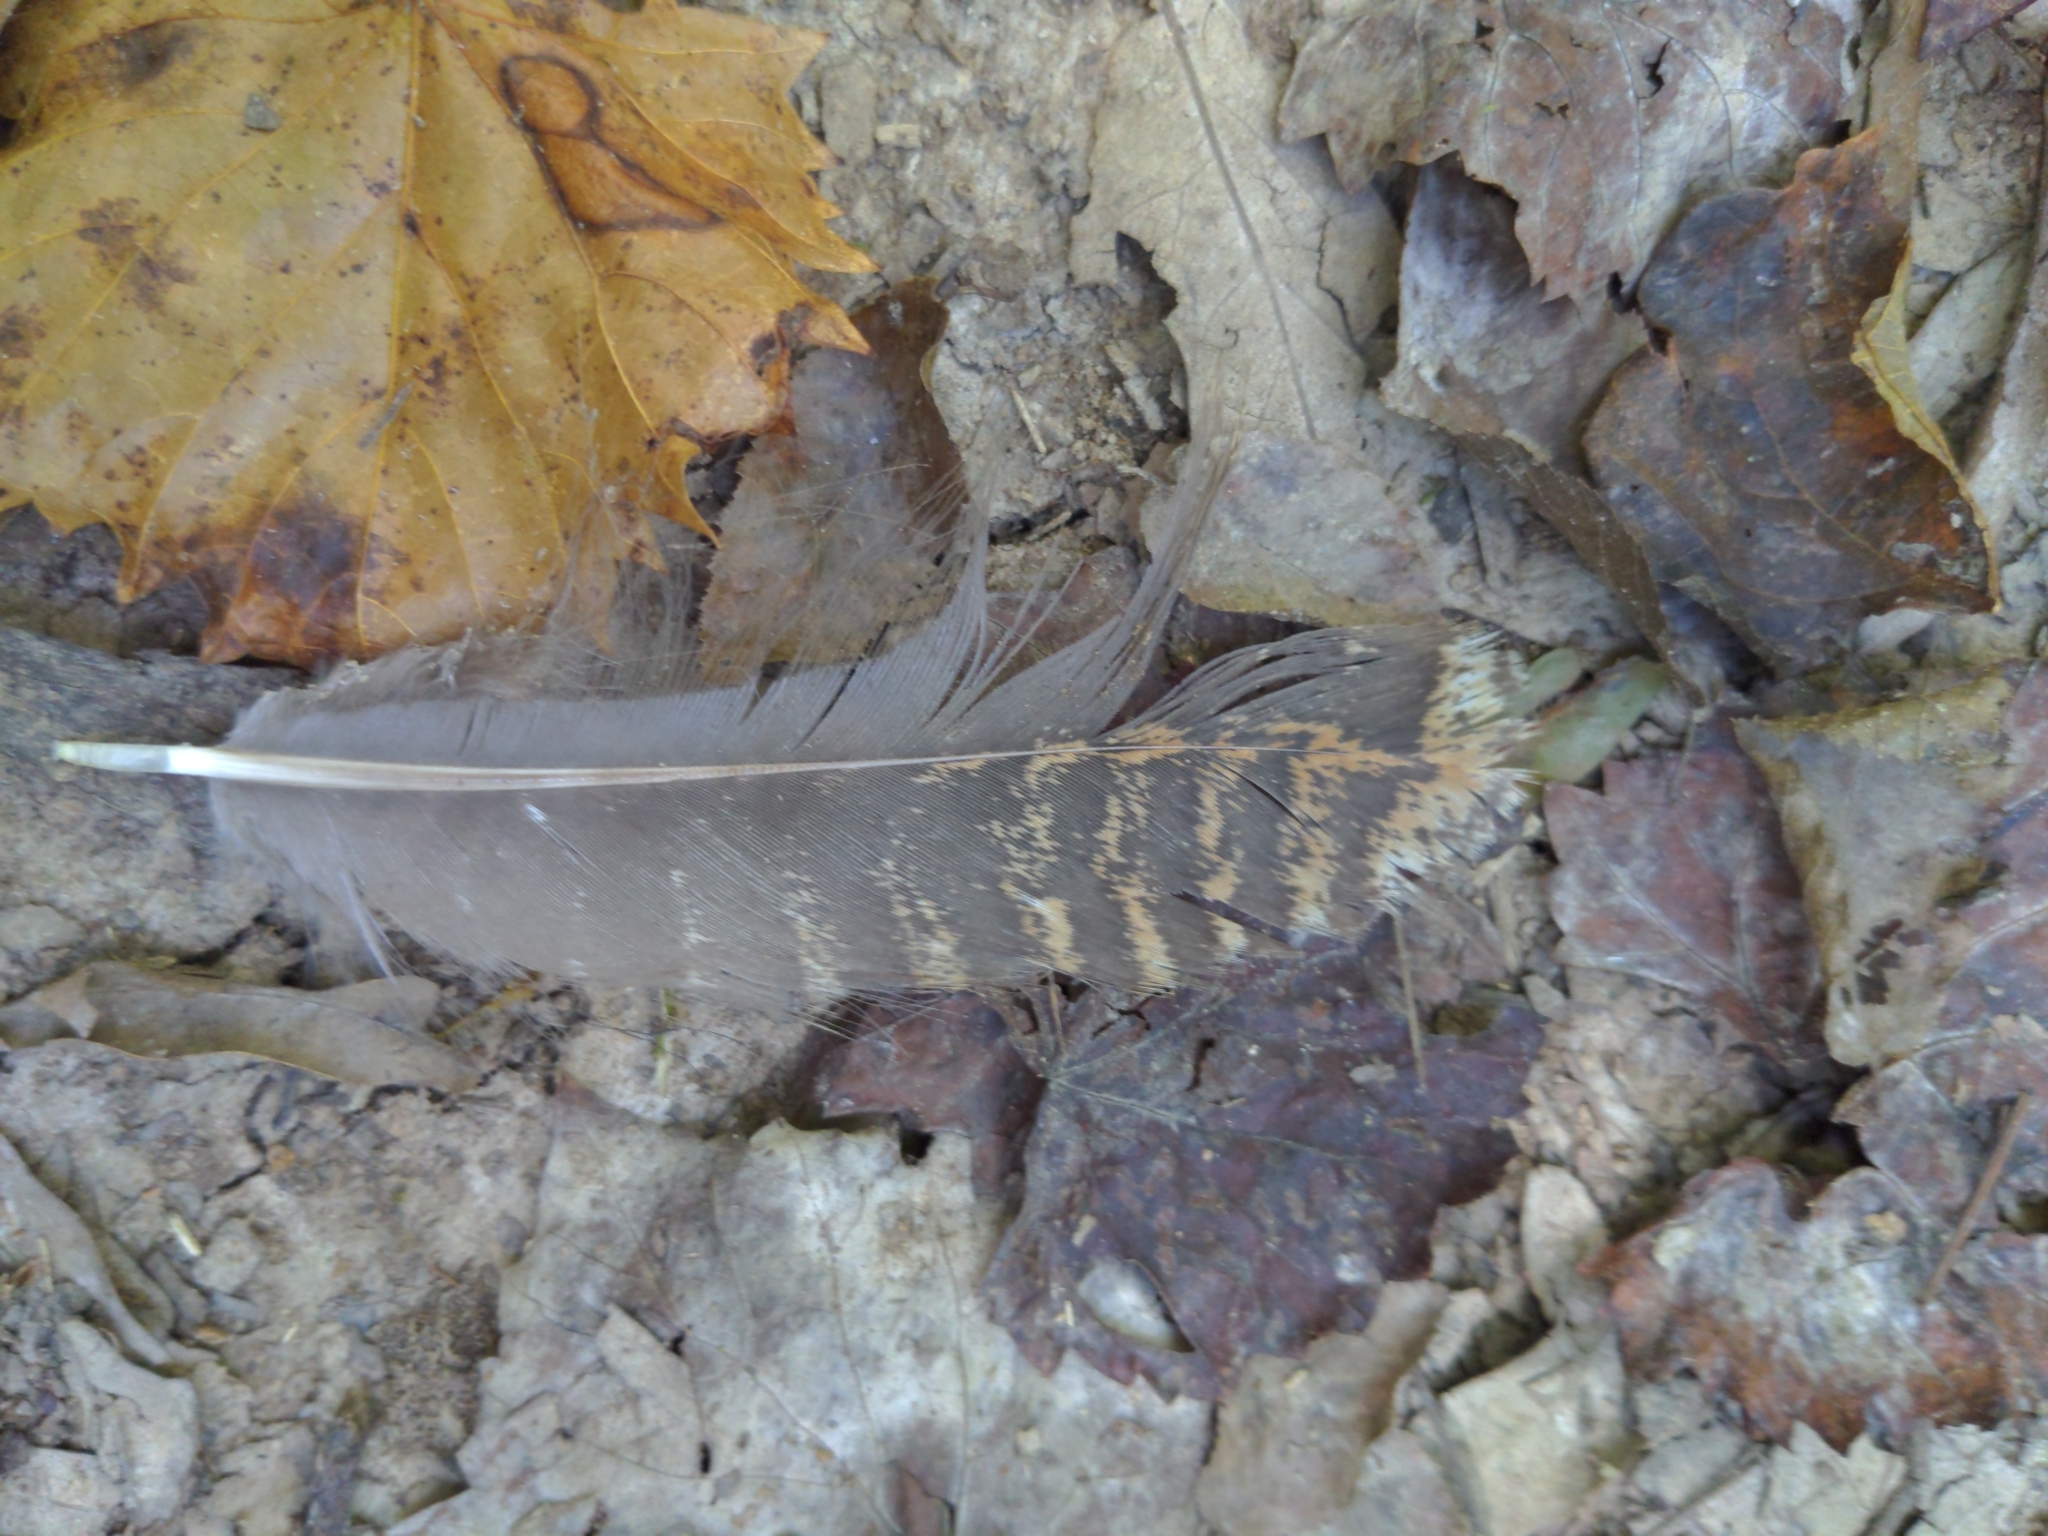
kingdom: Animalia
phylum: Chordata
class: Aves
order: Galliformes
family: Phasianidae
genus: Meleagris
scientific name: Meleagris gallopavo
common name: Wild turkey
